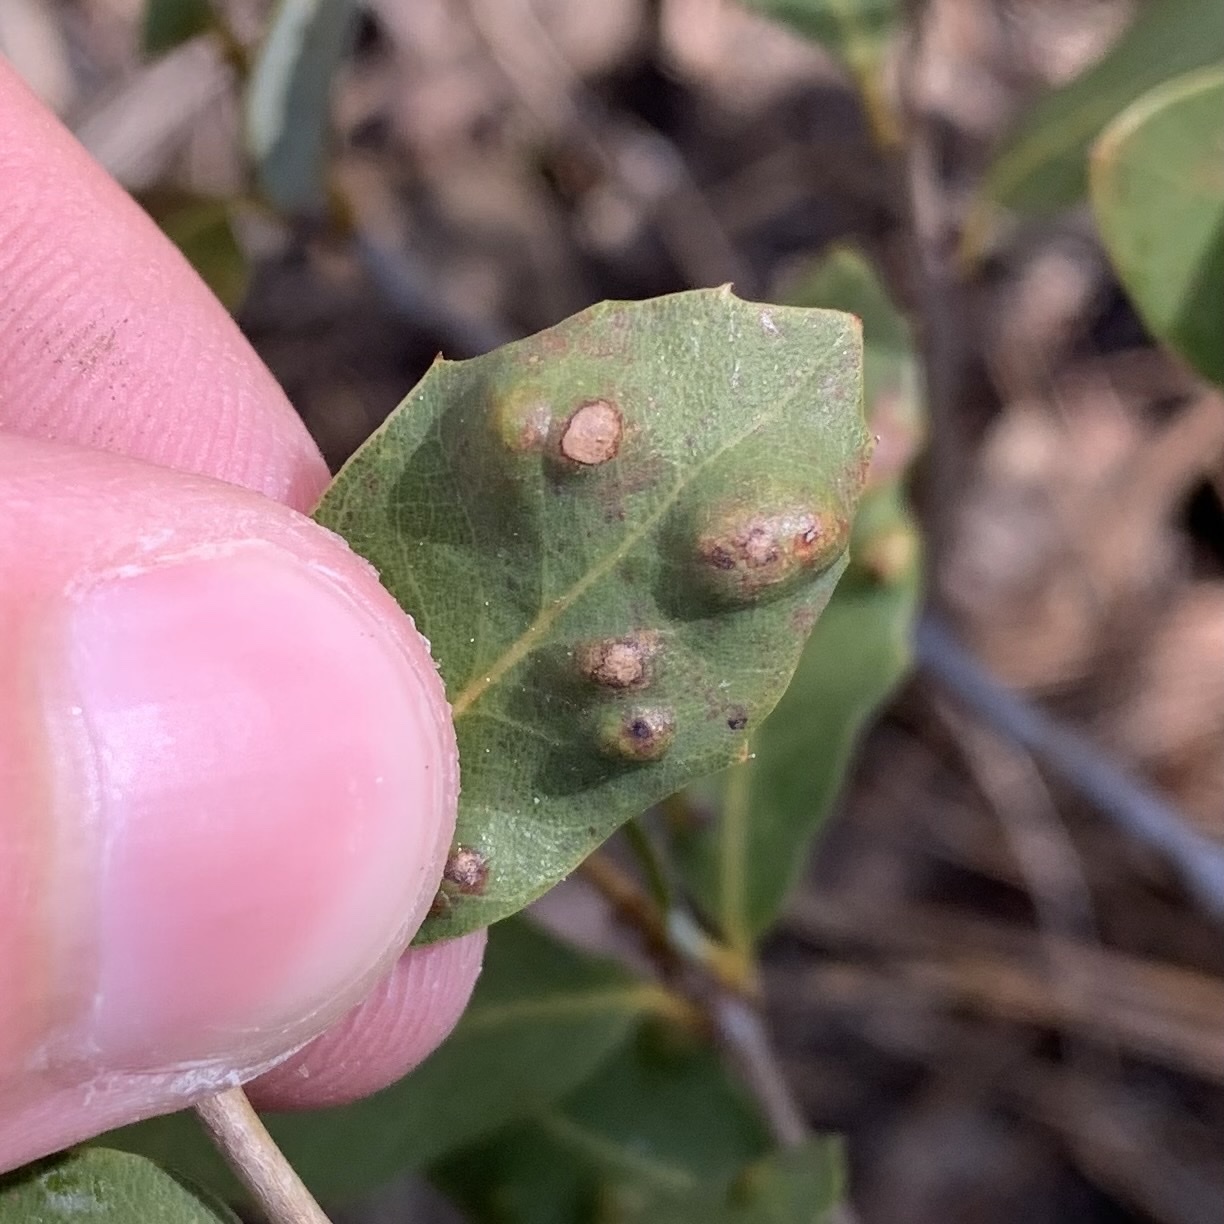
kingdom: Animalia
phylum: Arthropoda
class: Arachnida
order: Trombidiformes
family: Eriophyidae
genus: Aceria
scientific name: Aceria
